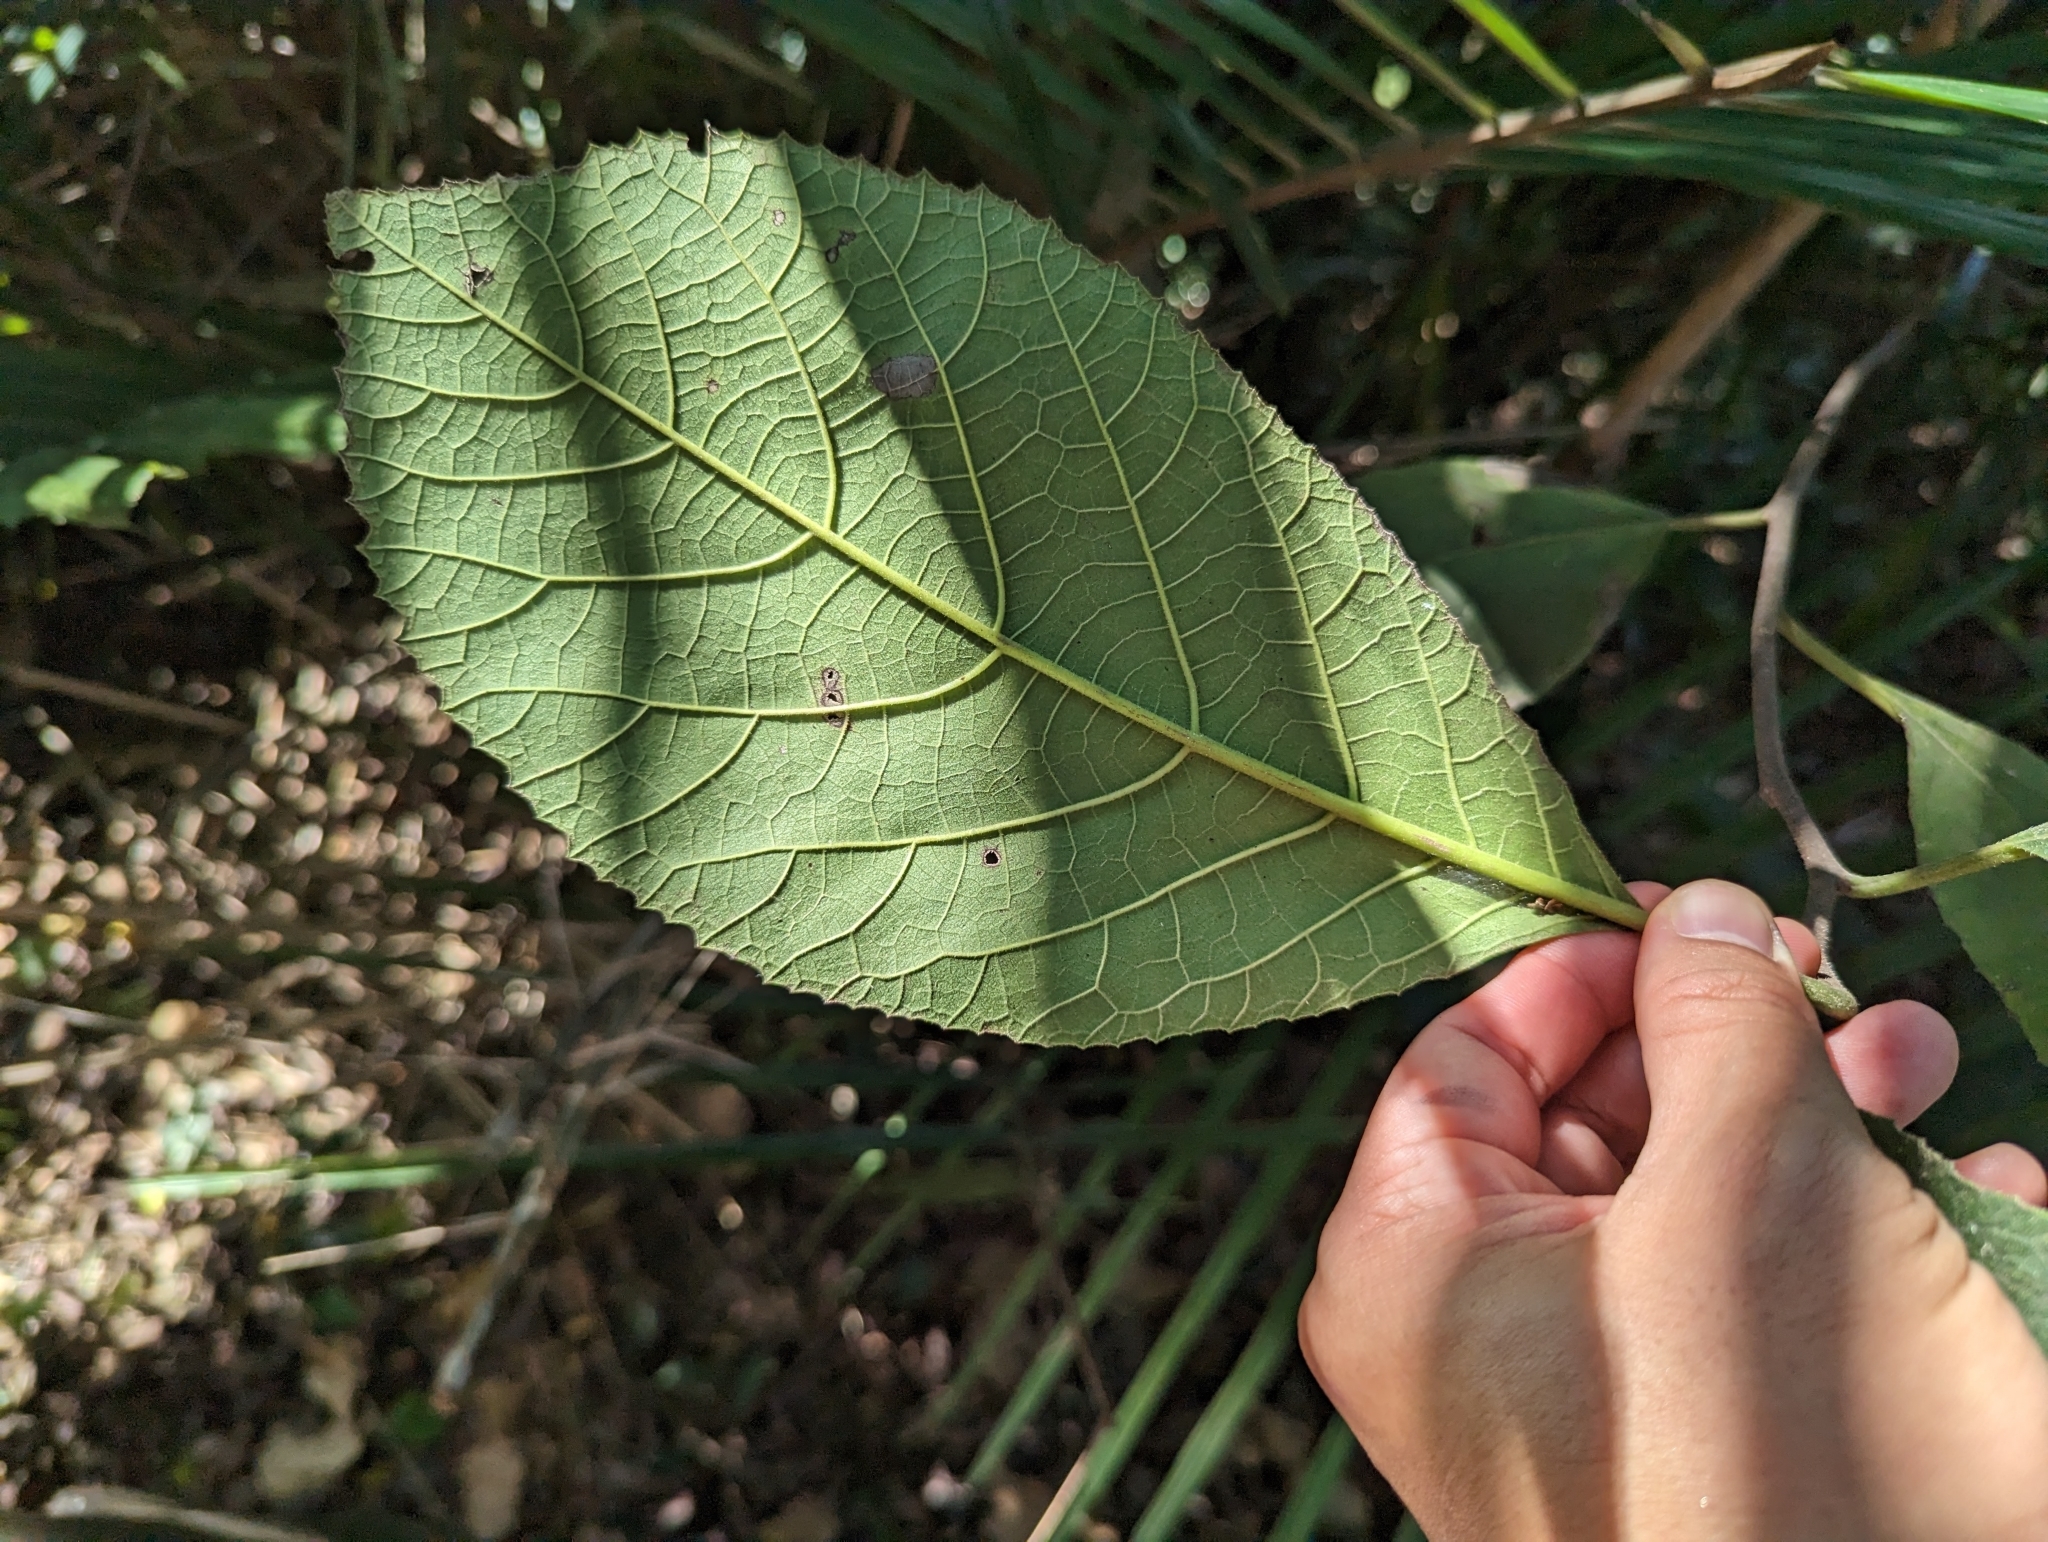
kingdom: Plantae
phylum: Tracheophyta
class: Magnoliopsida
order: Boraginales
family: Ehretiaceae
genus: Ehretia
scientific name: Ehretia dicksonii
